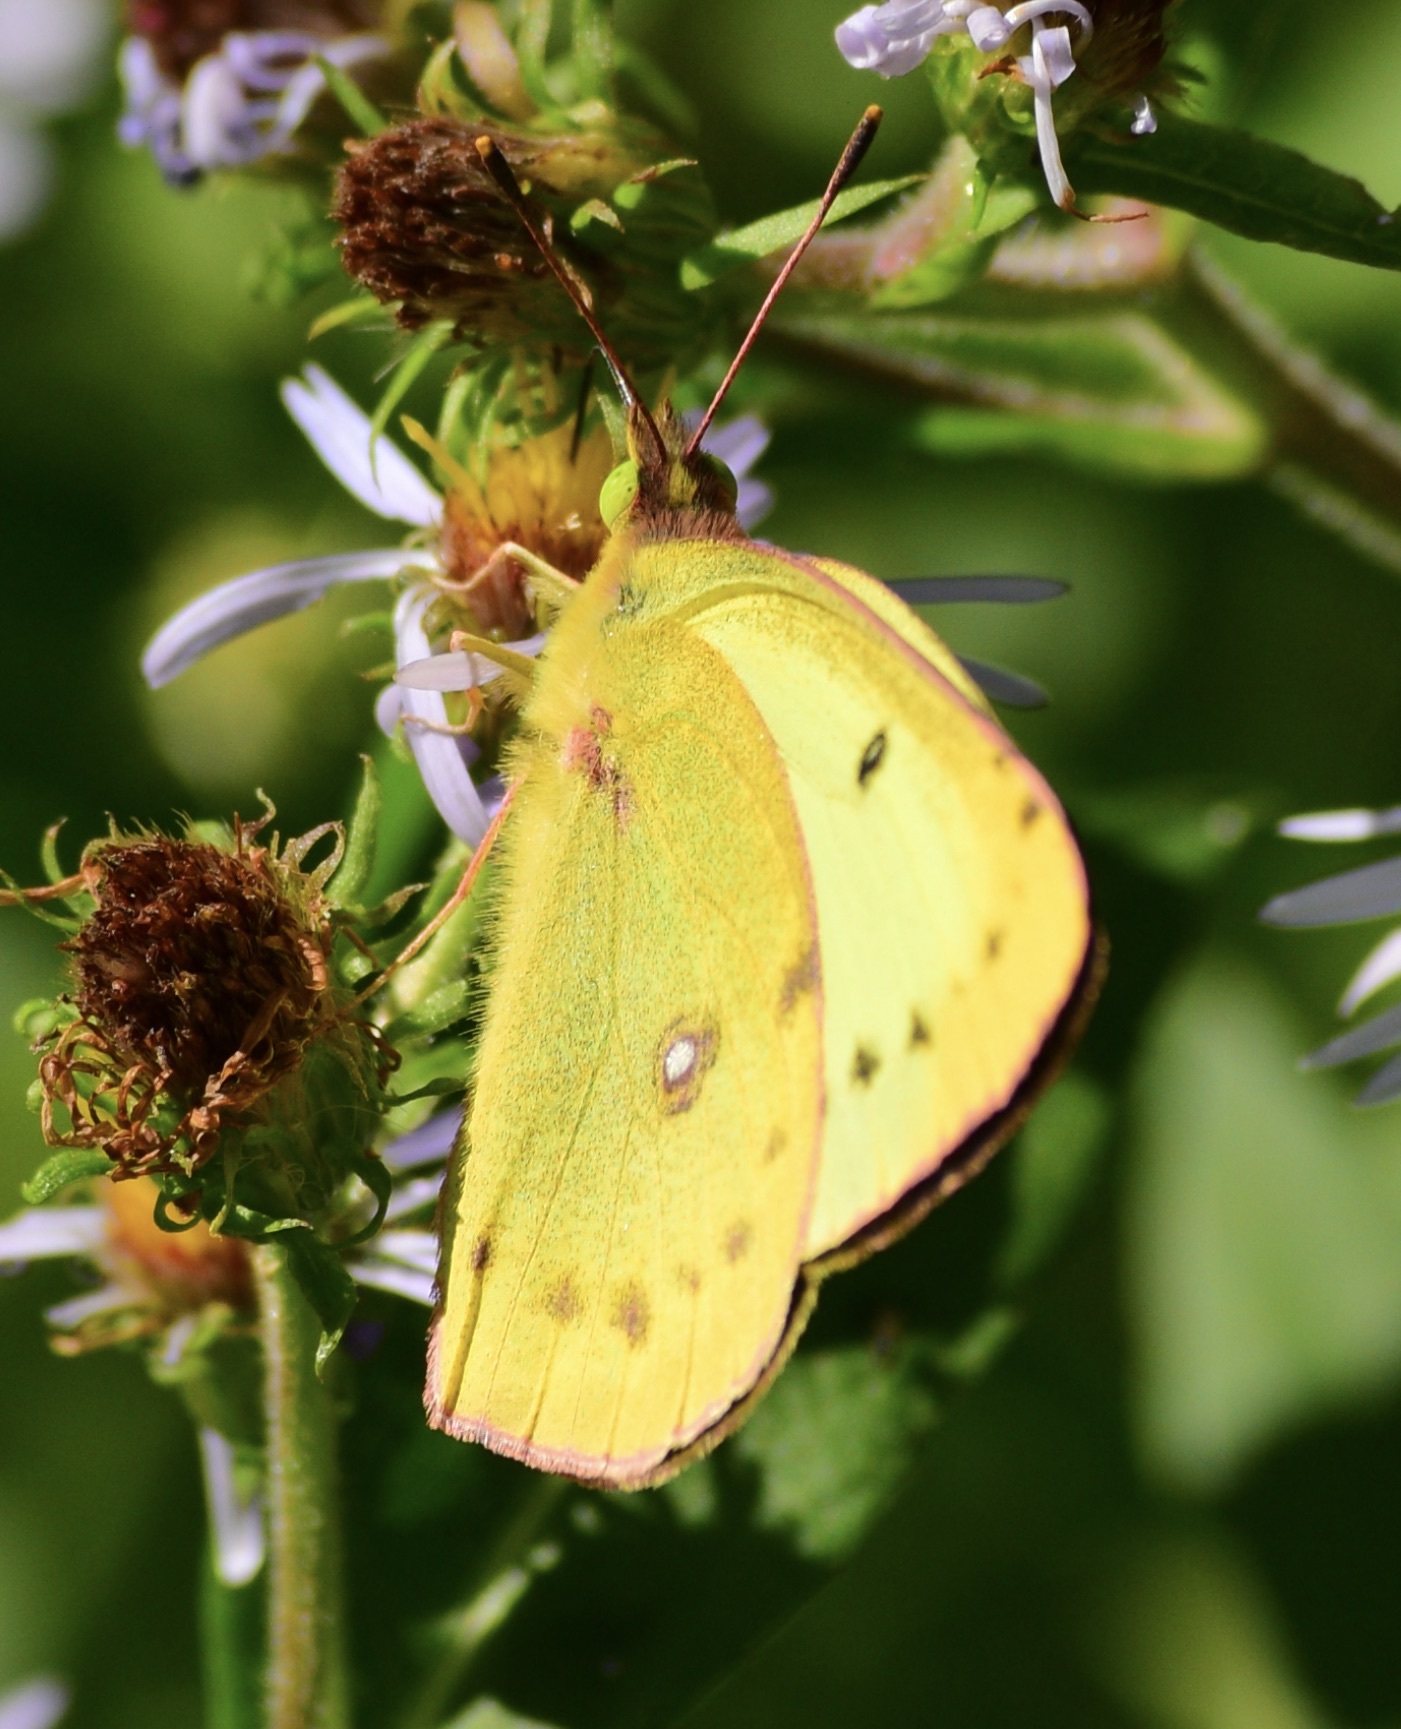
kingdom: Animalia
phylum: Arthropoda
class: Insecta
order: Lepidoptera
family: Pieridae
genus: Colias
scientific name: Colias philodice
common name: Clouded sulphur
